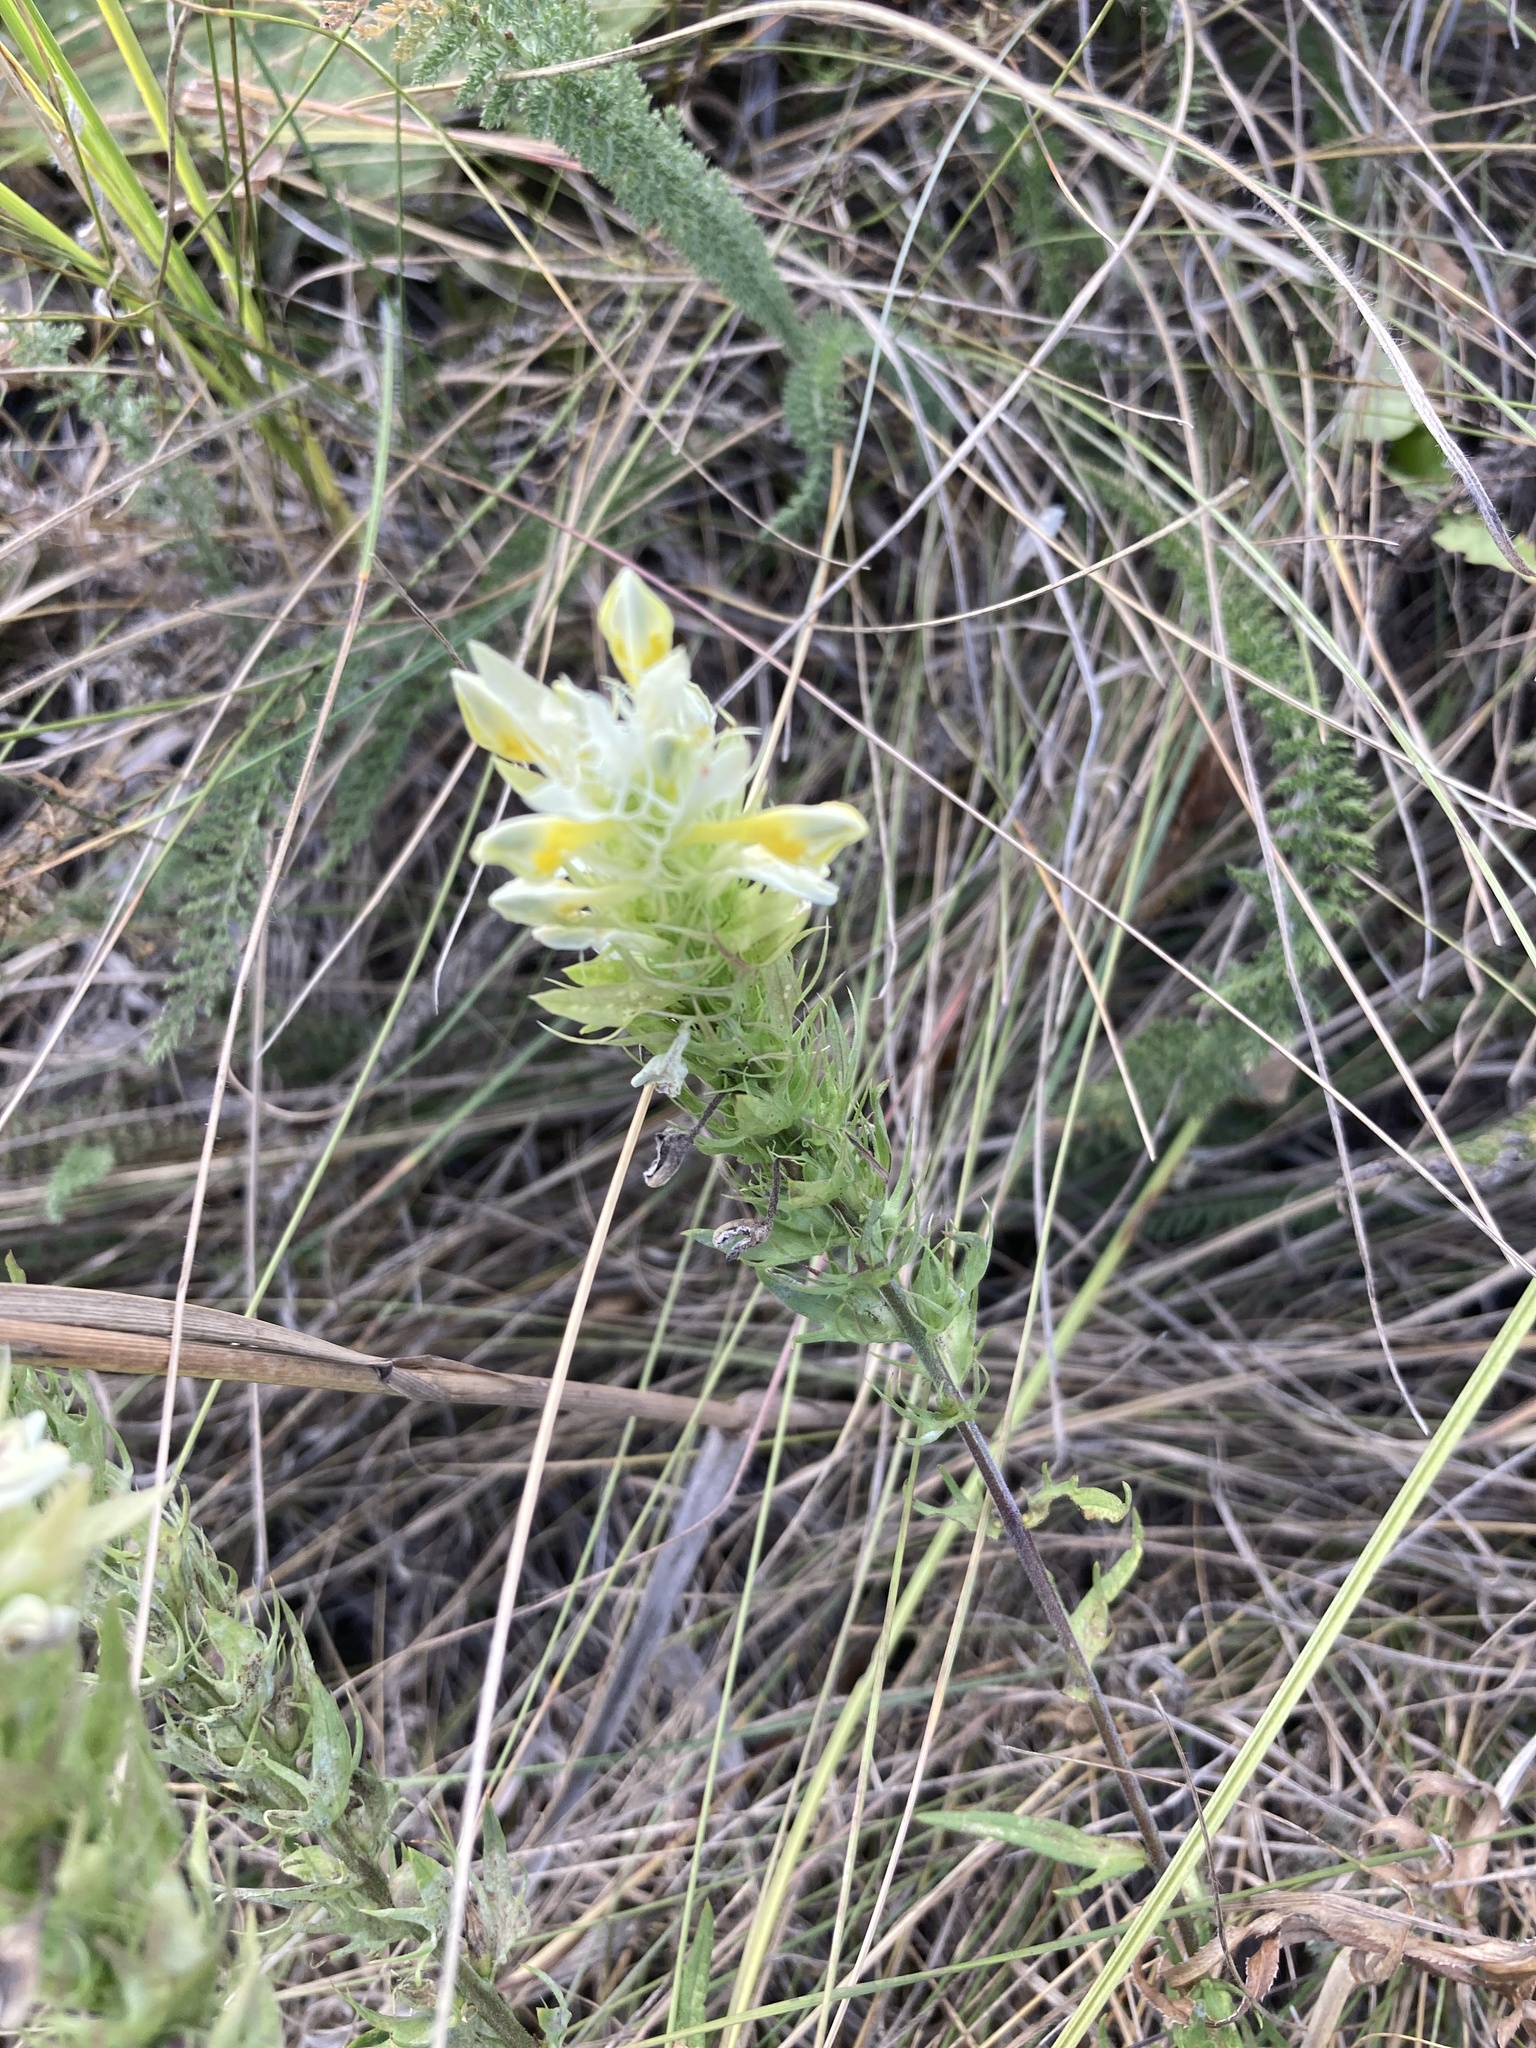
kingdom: Plantae
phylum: Tracheophyta
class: Magnoliopsida
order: Lamiales
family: Orobanchaceae
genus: Melampyrum
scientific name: Melampyrum arvense
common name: Field cow-wheat
